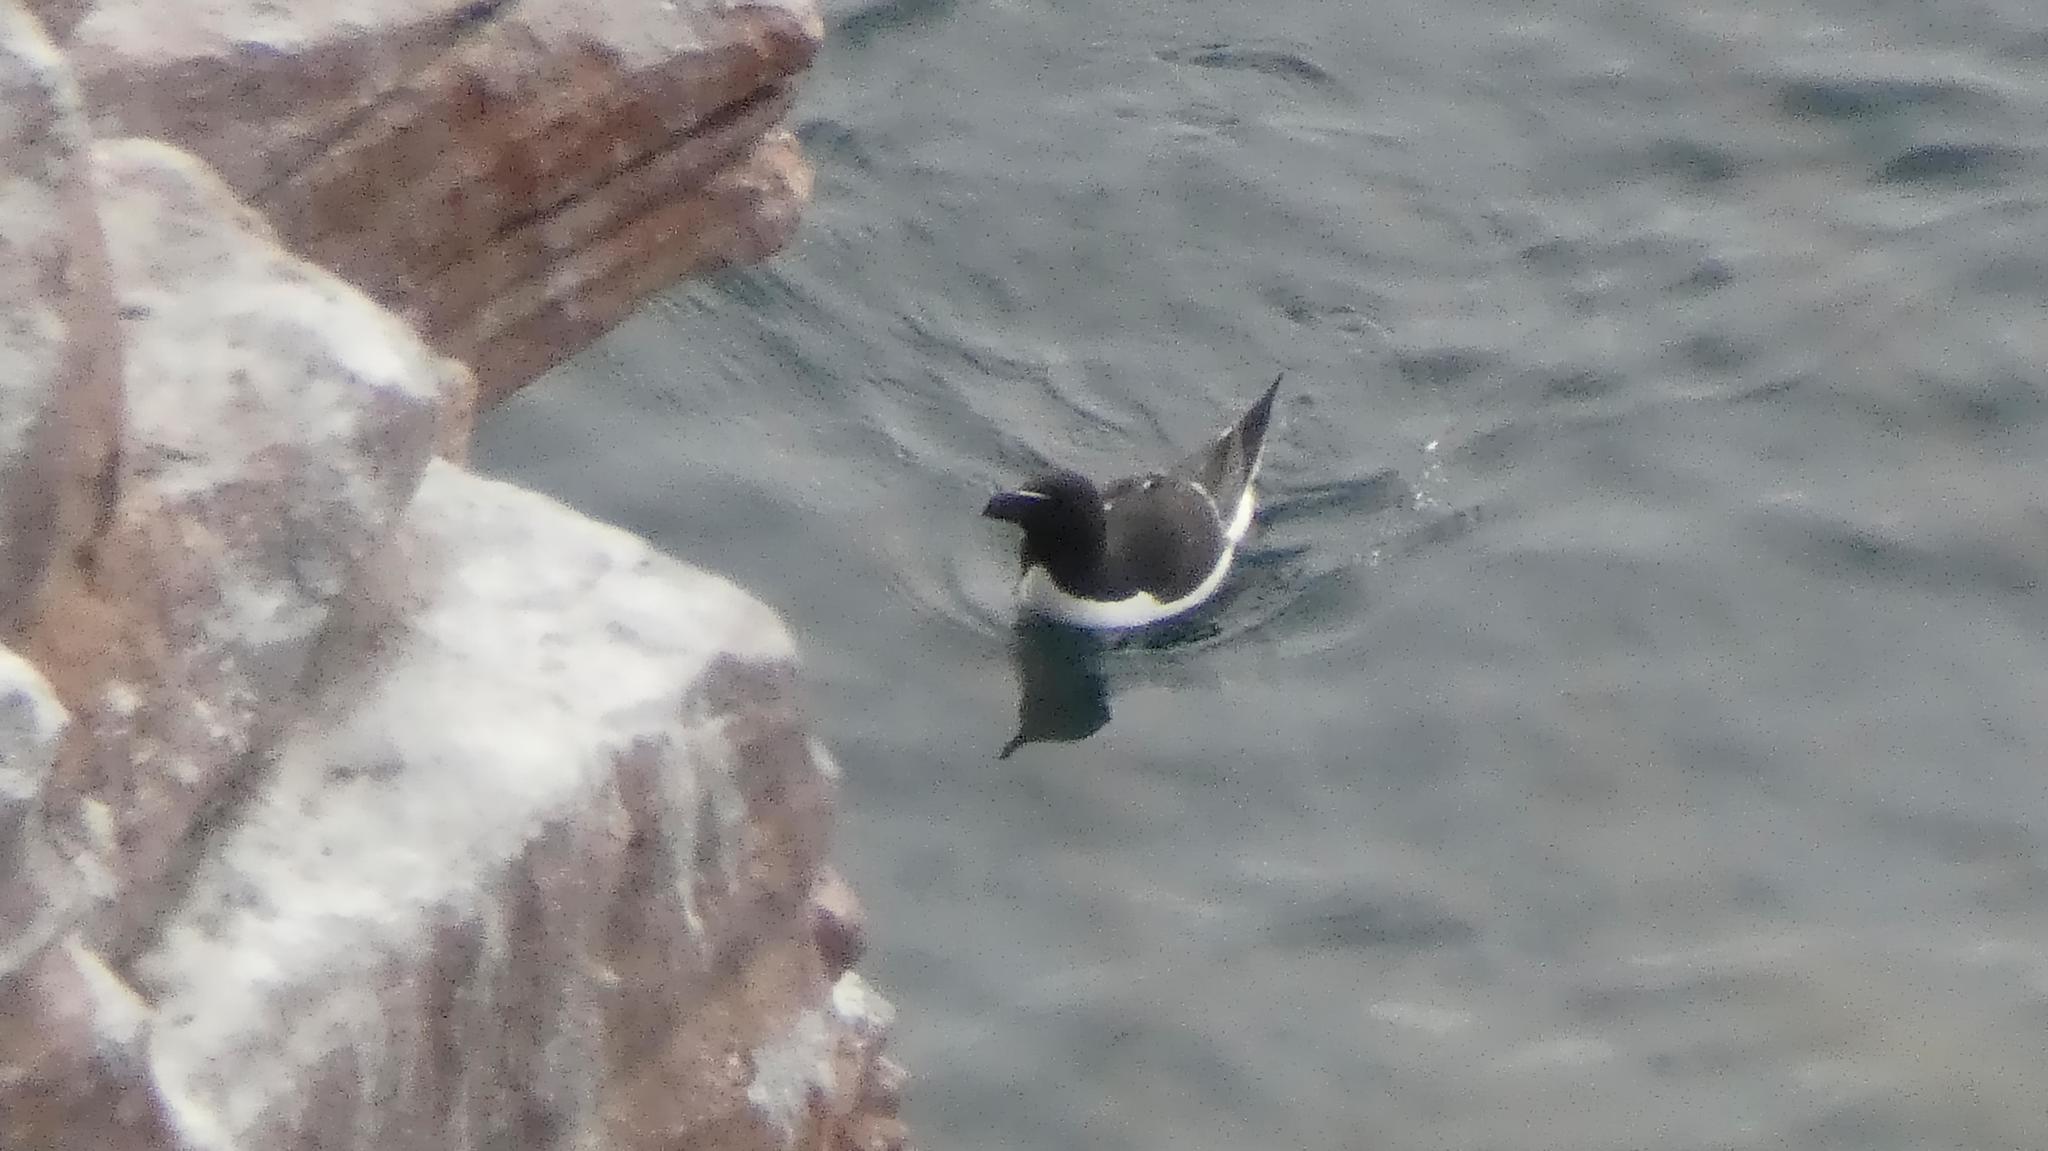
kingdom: Animalia
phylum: Chordata
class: Aves
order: Charadriiformes
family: Alcidae
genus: Alca
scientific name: Alca torda
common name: Razorbill
